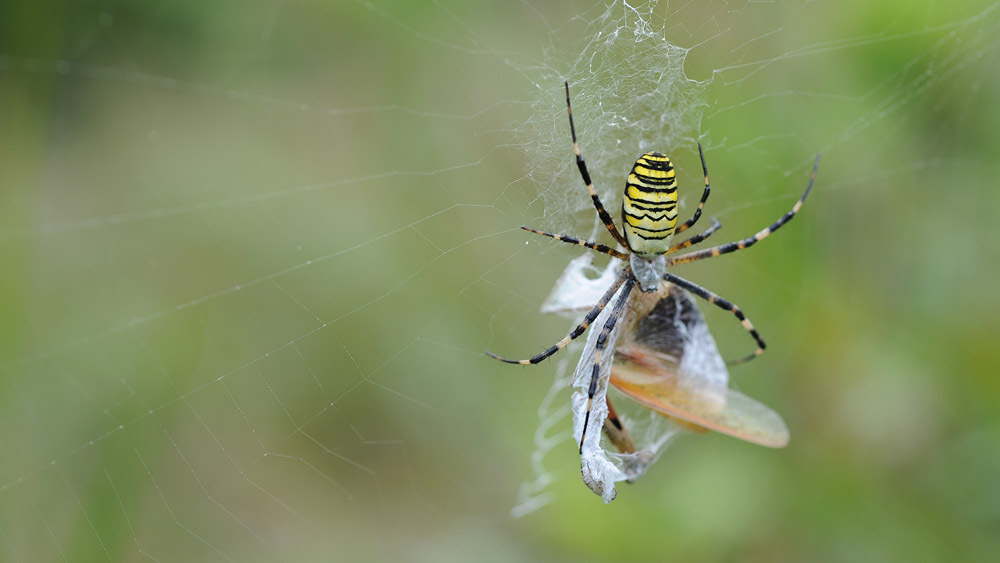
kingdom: Animalia
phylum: Arthropoda
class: Arachnida
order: Araneae
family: Araneidae
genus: Argiope
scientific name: Argiope bruennichi
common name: Wasp spider
